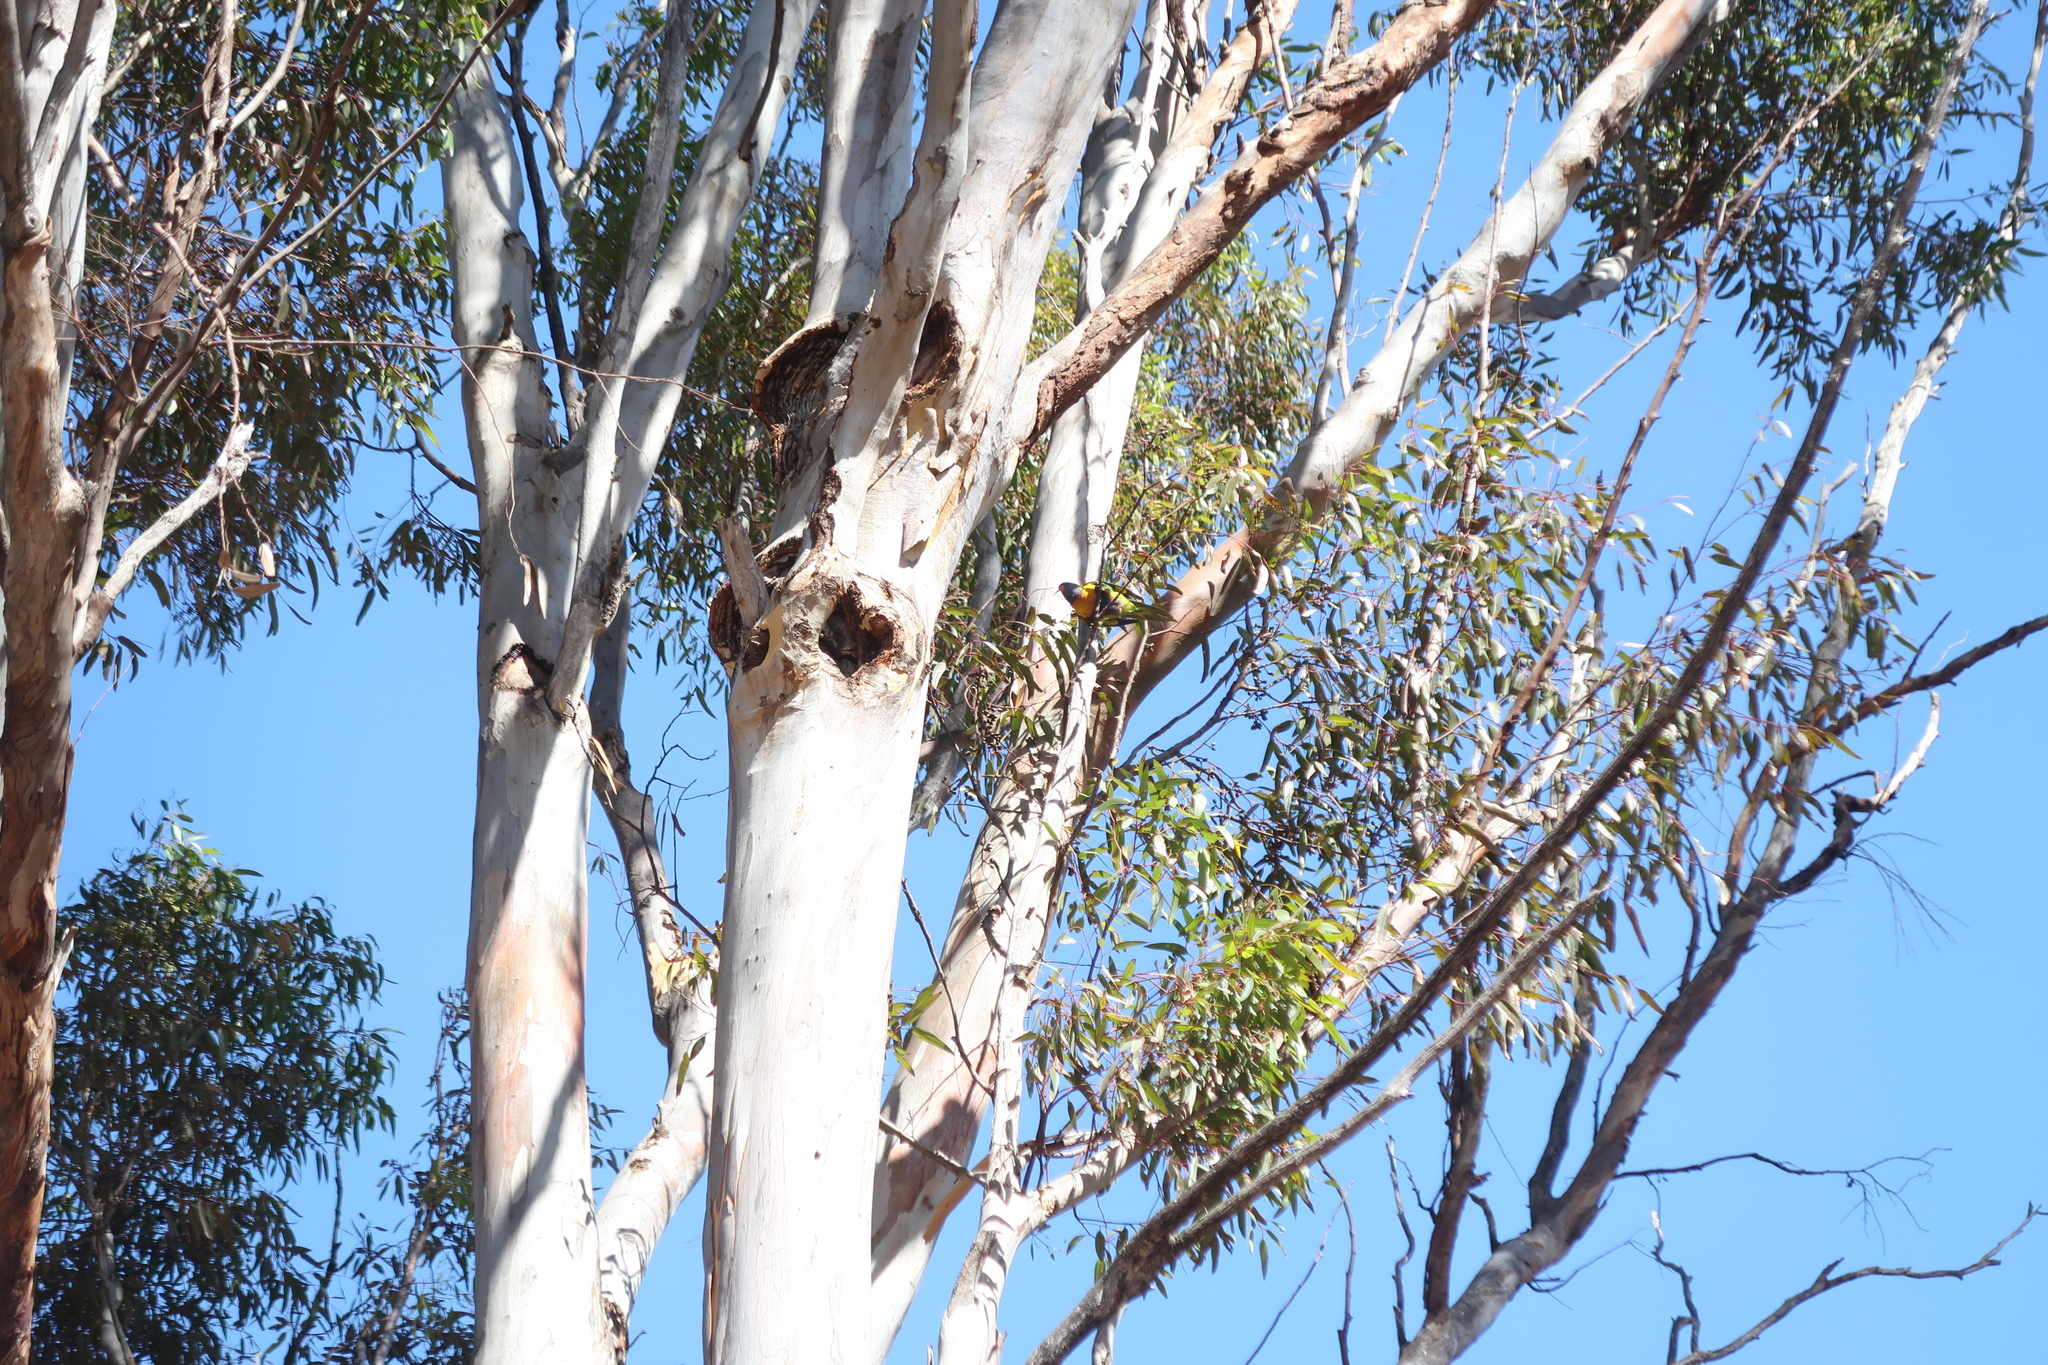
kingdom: Animalia
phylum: Chordata
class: Aves
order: Psittaciformes
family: Psittacidae
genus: Trichoglossus
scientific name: Trichoglossus haematodus
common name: Coconut lorikeet
